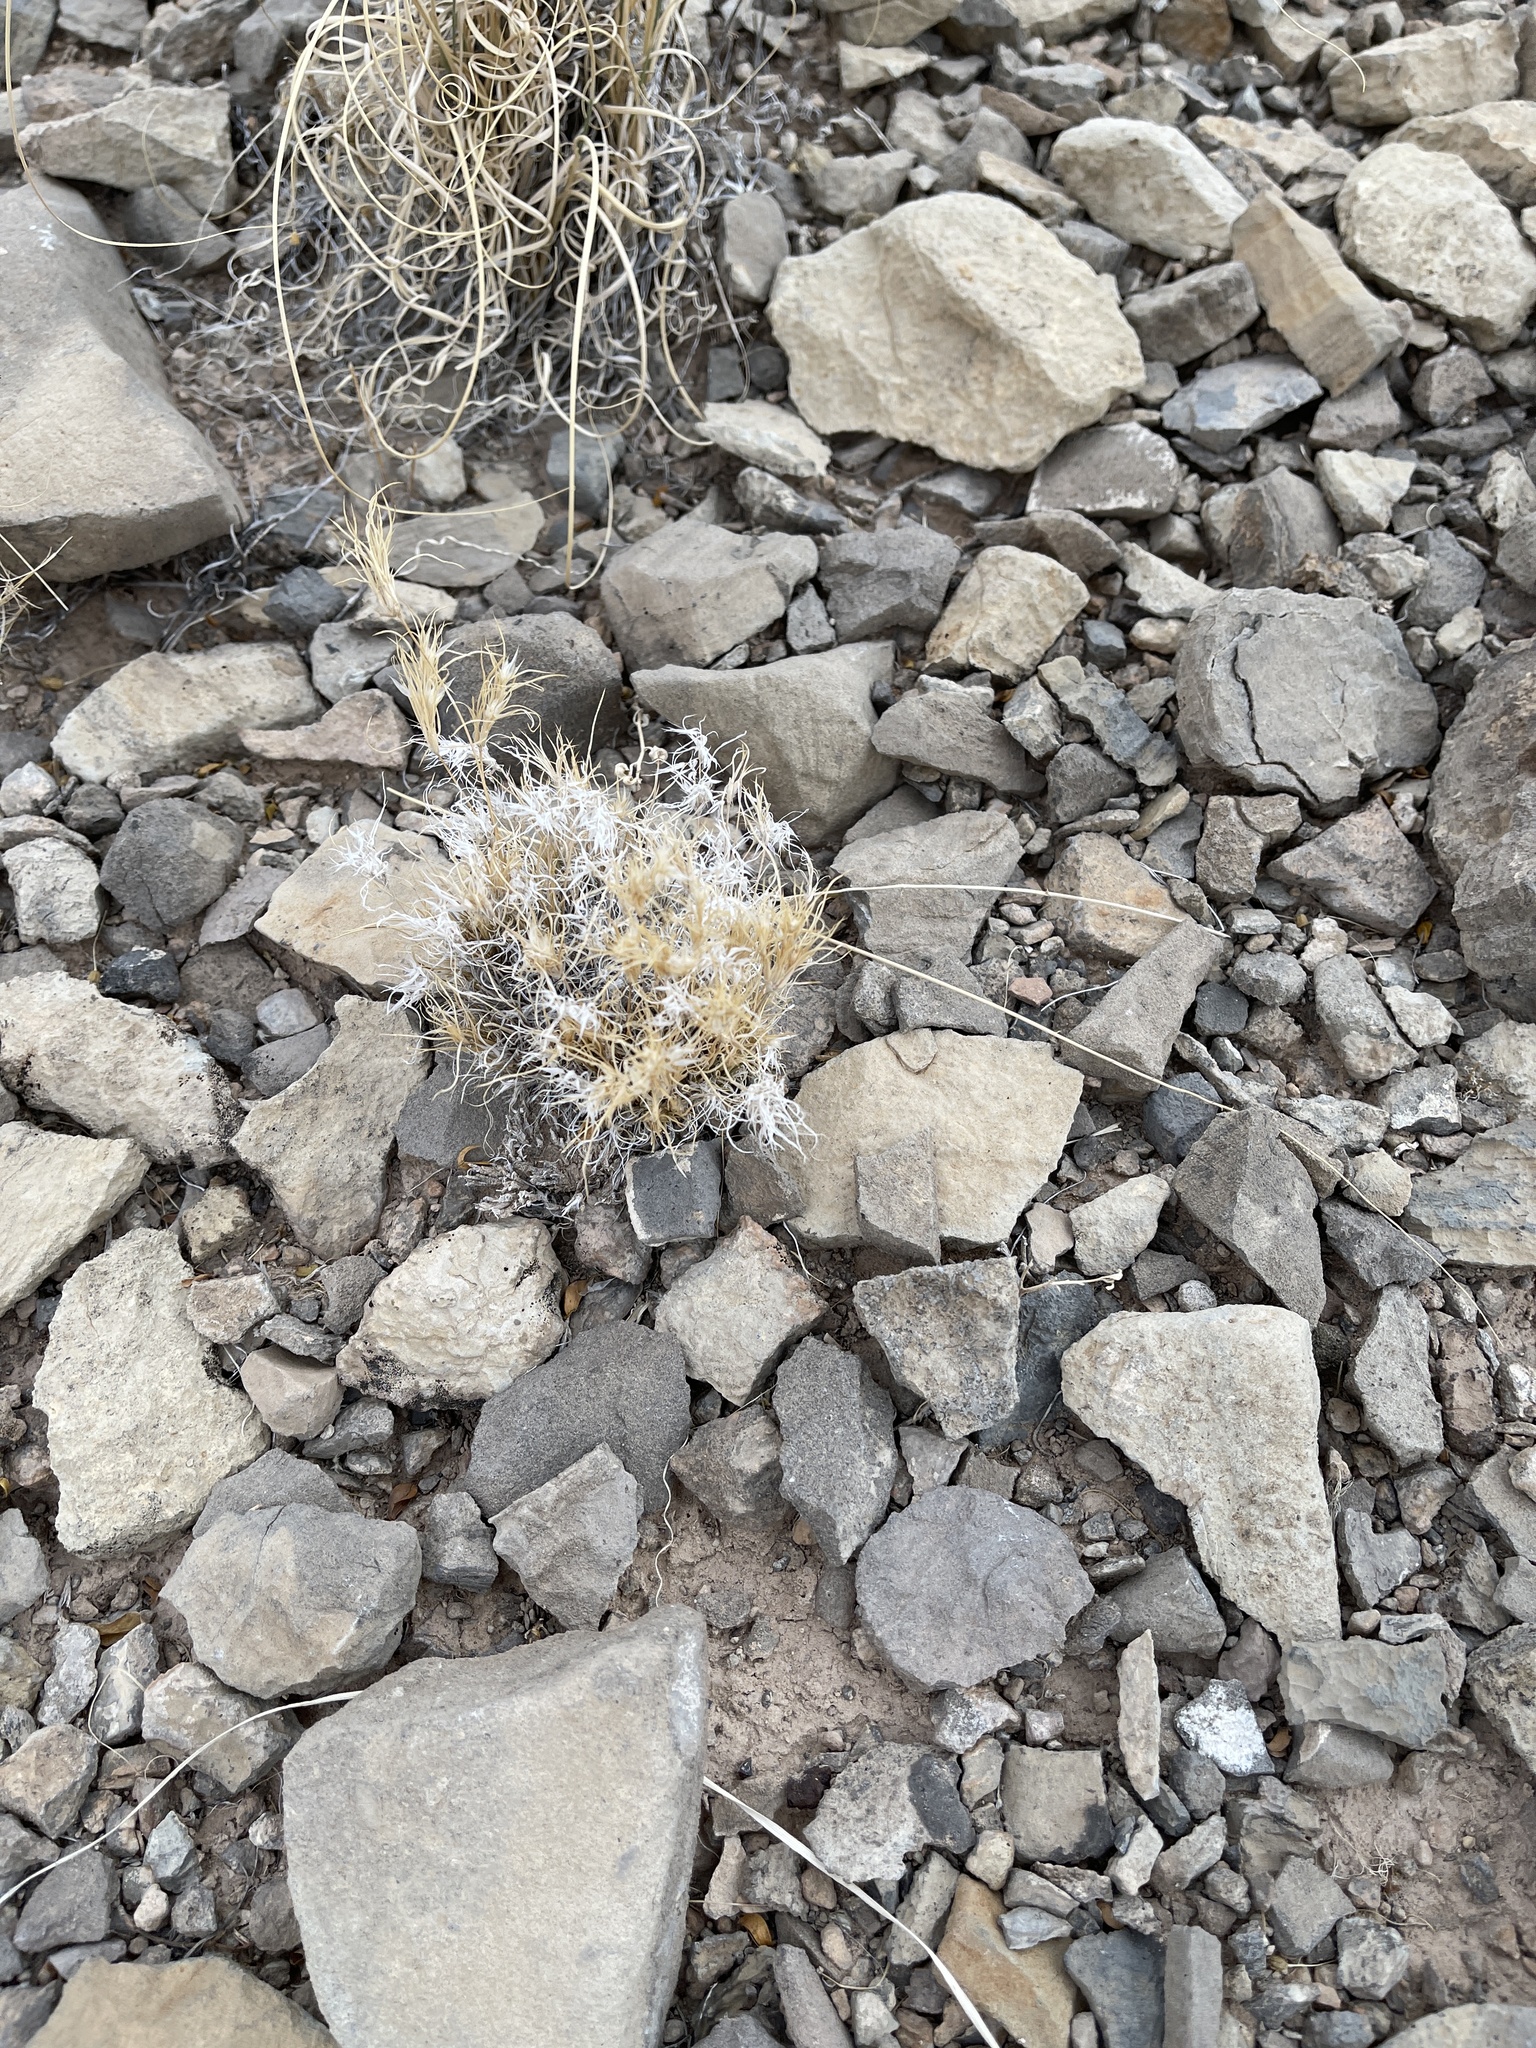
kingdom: Plantae
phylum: Tracheophyta
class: Liliopsida
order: Poales
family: Poaceae
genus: Dasyochloa
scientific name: Dasyochloa pulchella
